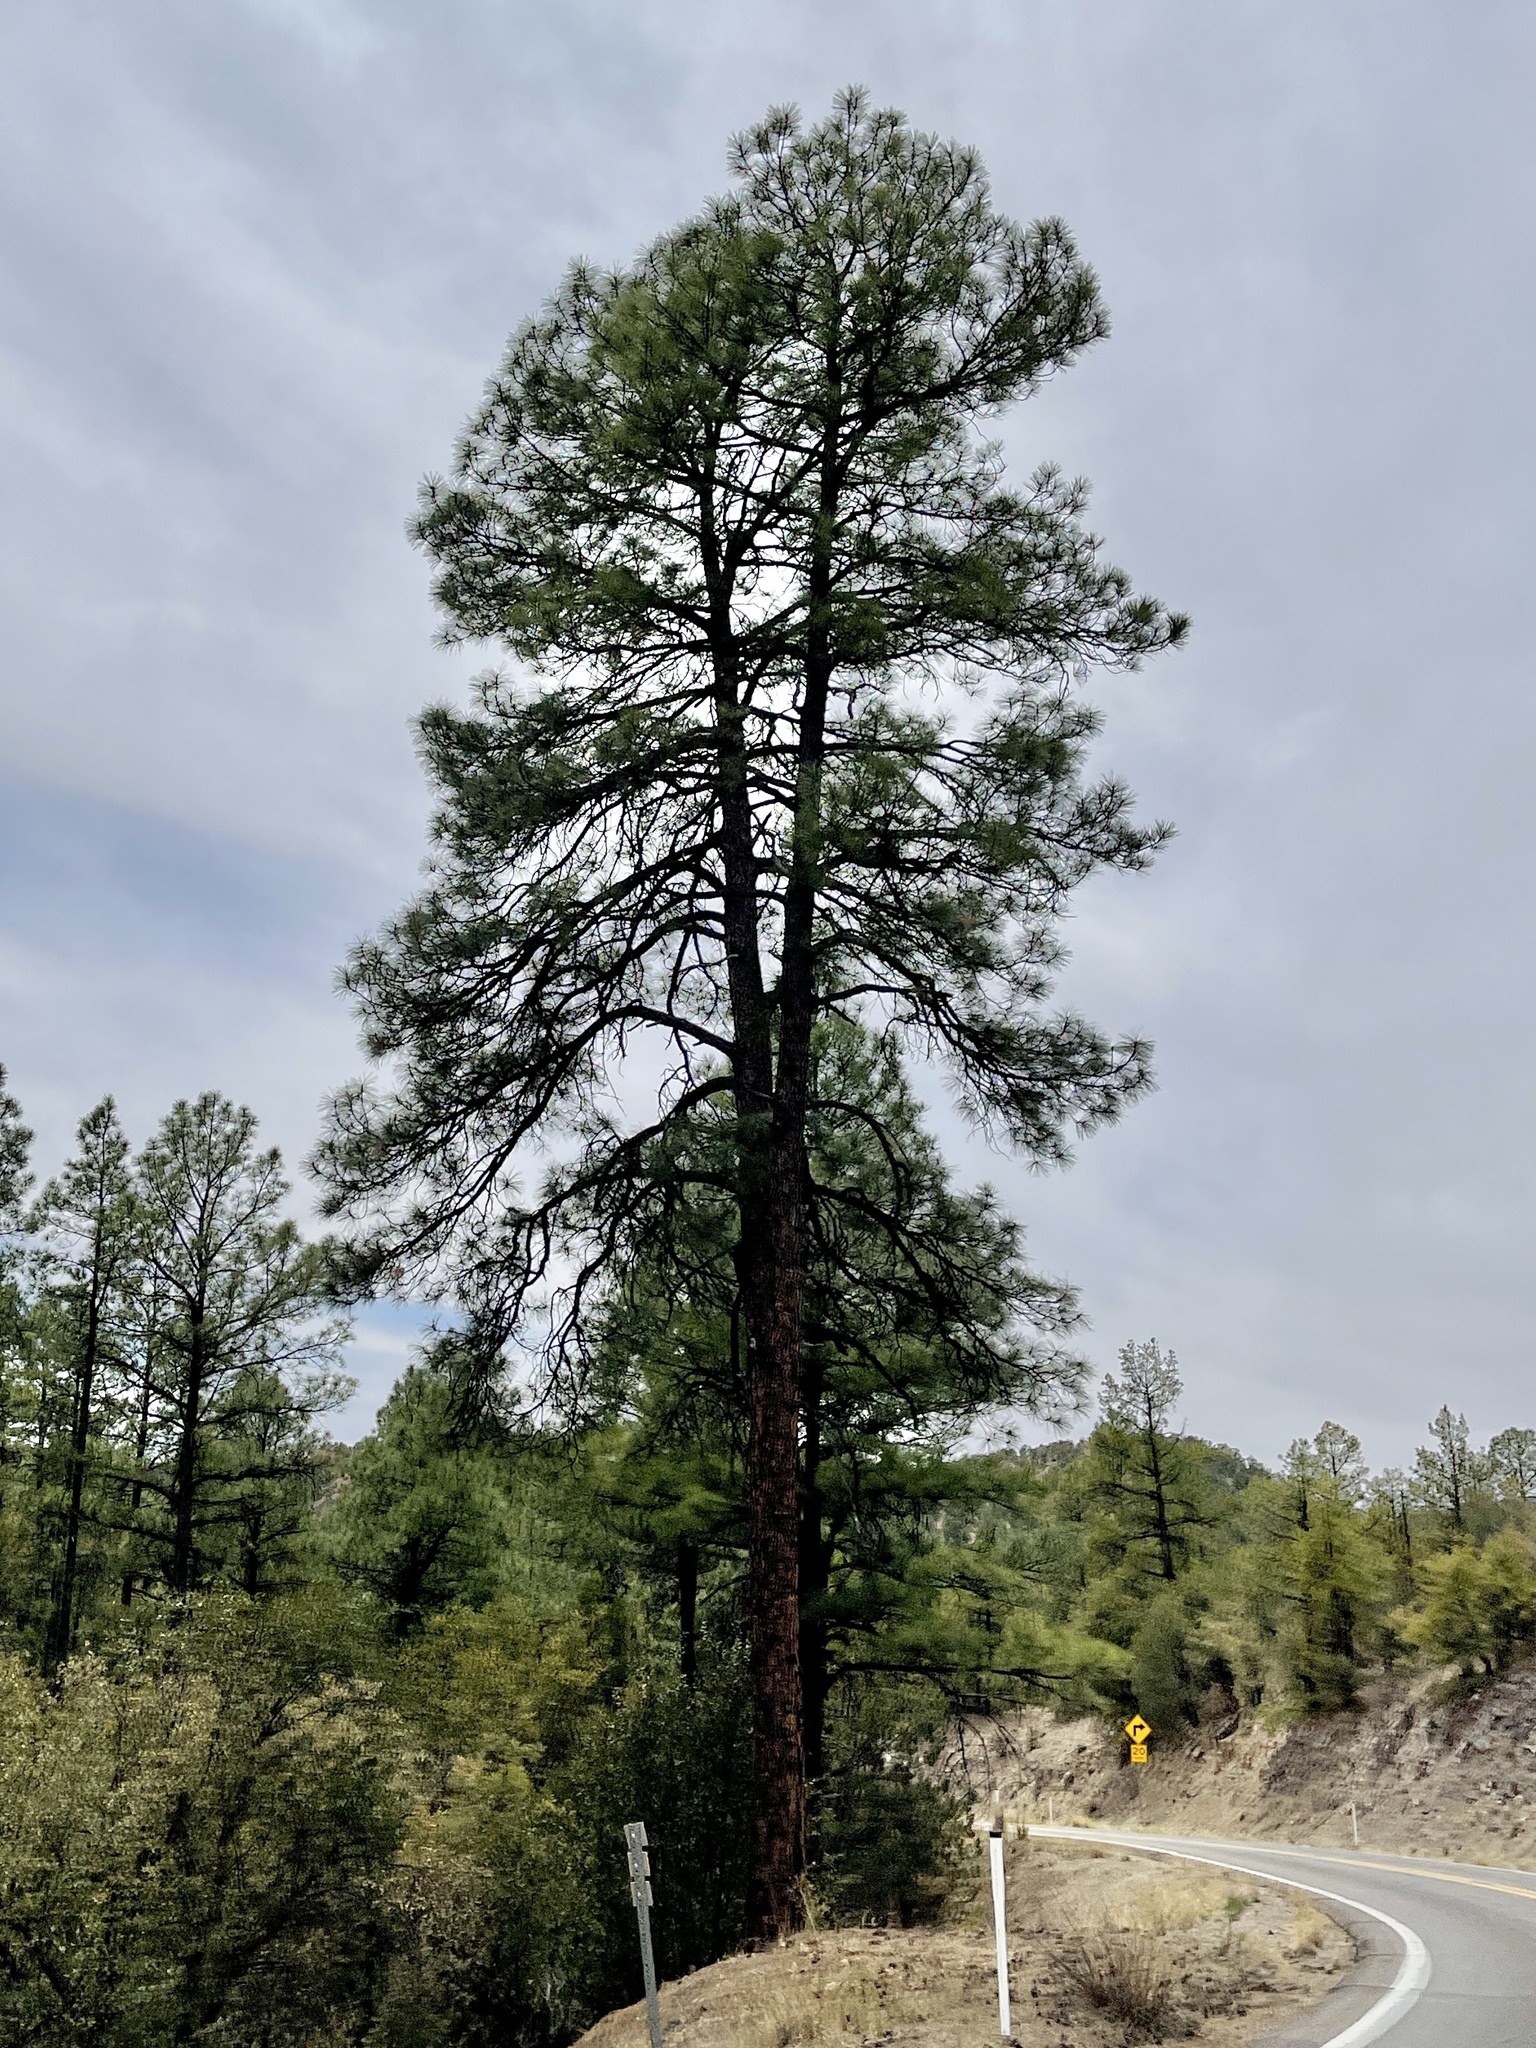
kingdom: Plantae
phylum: Tracheophyta
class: Pinopsida
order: Pinales
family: Pinaceae
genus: Pinus
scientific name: Pinus ponderosa
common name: Western yellow-pine
